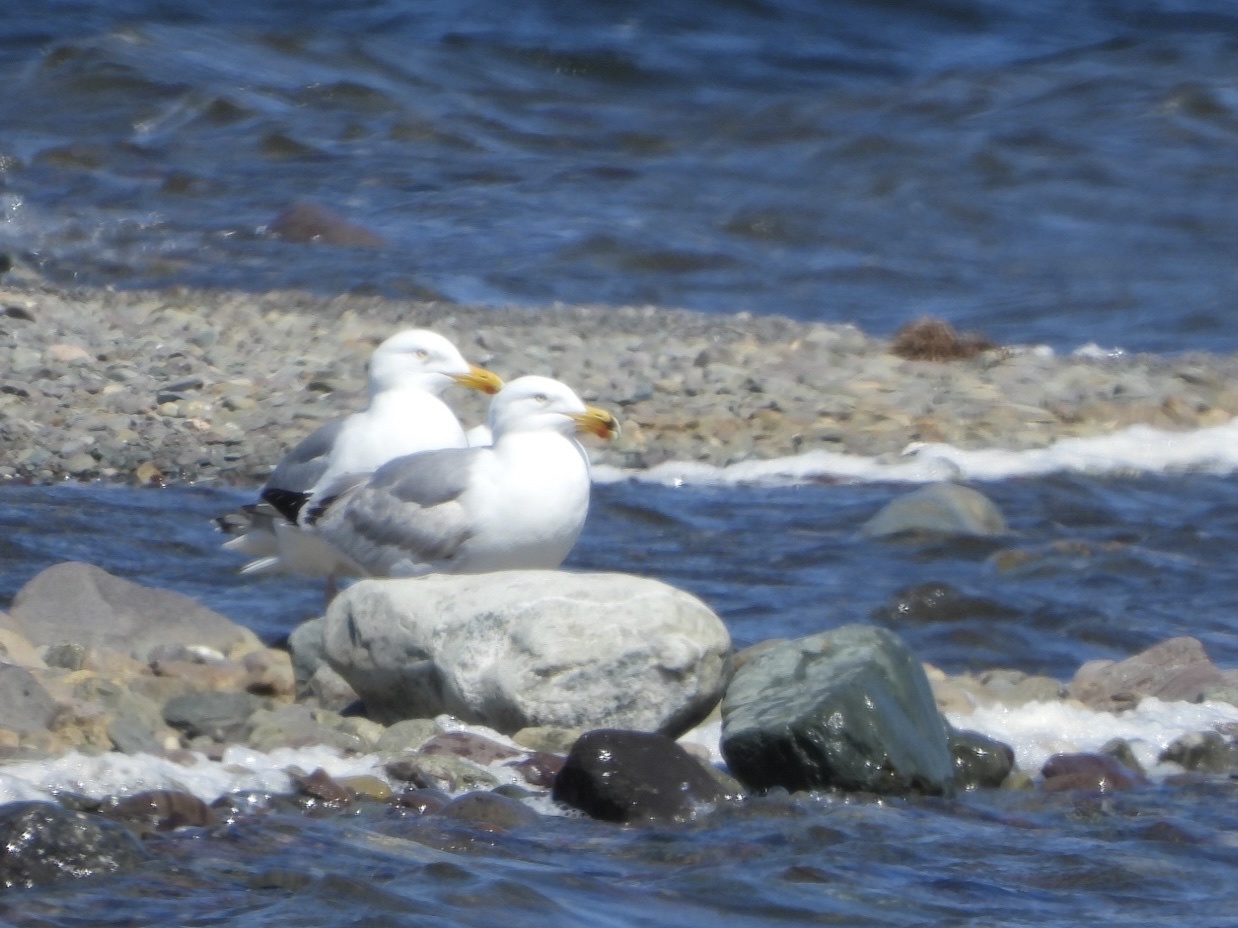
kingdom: Animalia
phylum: Chordata
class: Aves
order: Charadriiformes
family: Laridae
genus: Larus
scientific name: Larus argentatus
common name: Herring gull
